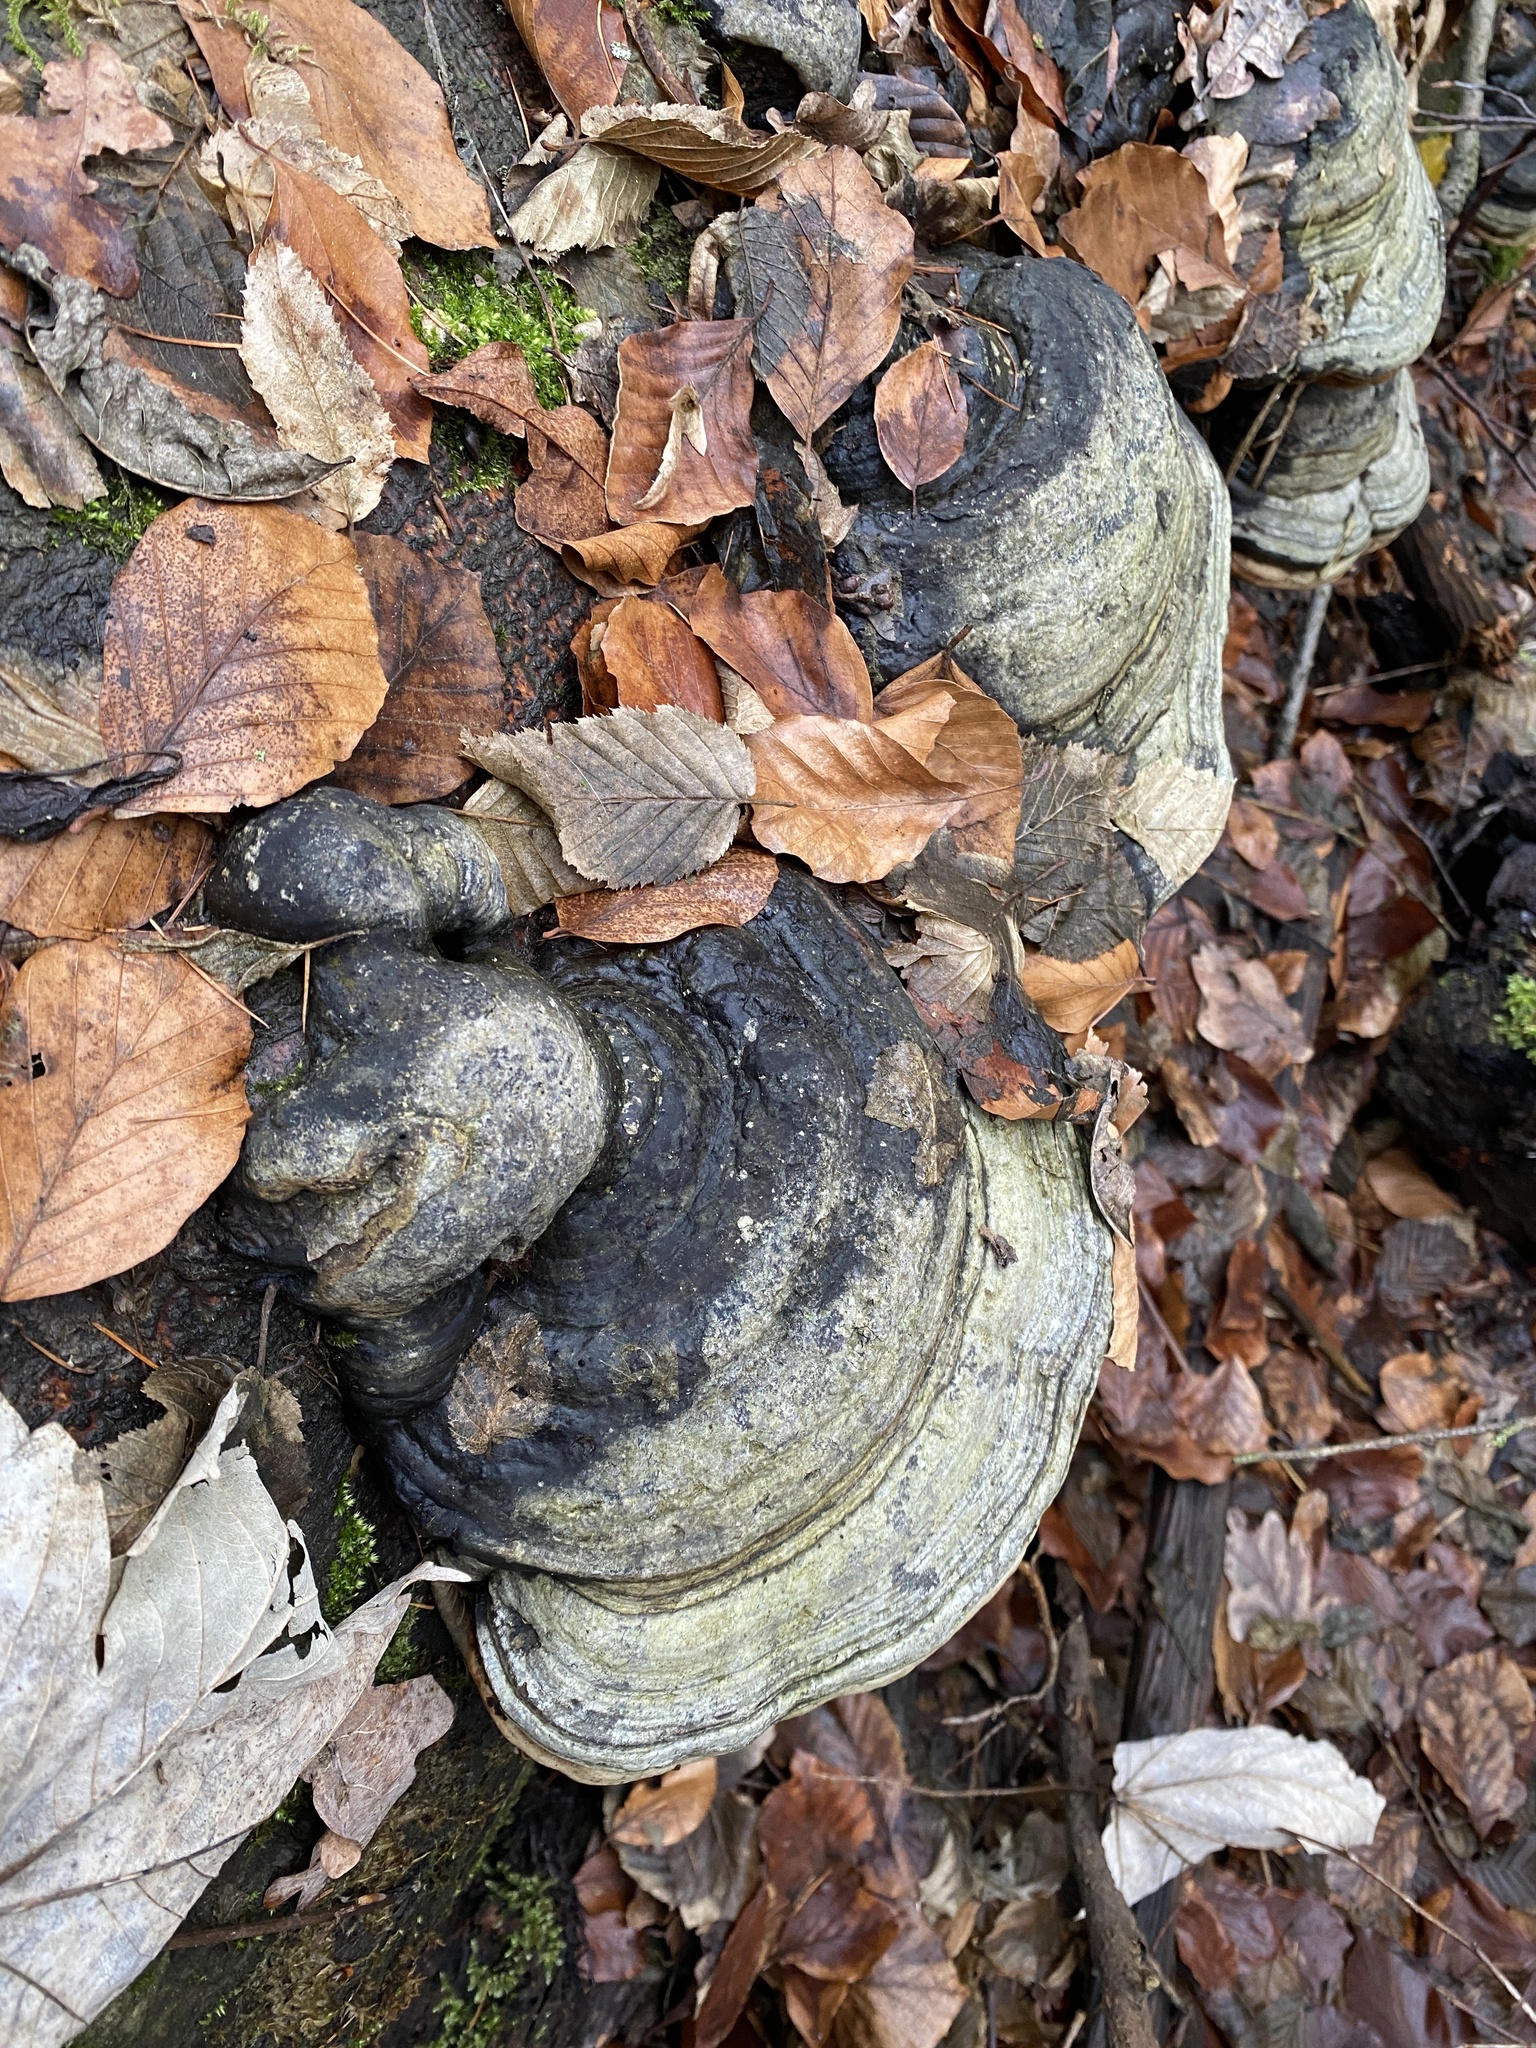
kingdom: Fungi
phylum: Basidiomycota
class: Agaricomycetes
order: Polyporales
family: Polyporaceae
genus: Fomes
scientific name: Fomes fomentarius
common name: Hoof fungus
